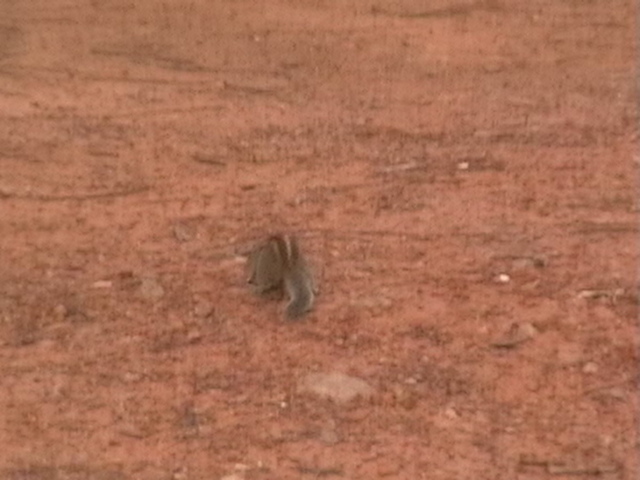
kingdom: Animalia
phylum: Chordata
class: Mammalia
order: Rodentia
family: Sciuridae
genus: Funambulus
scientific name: Funambulus palmarum
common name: Indian palm squirrel
